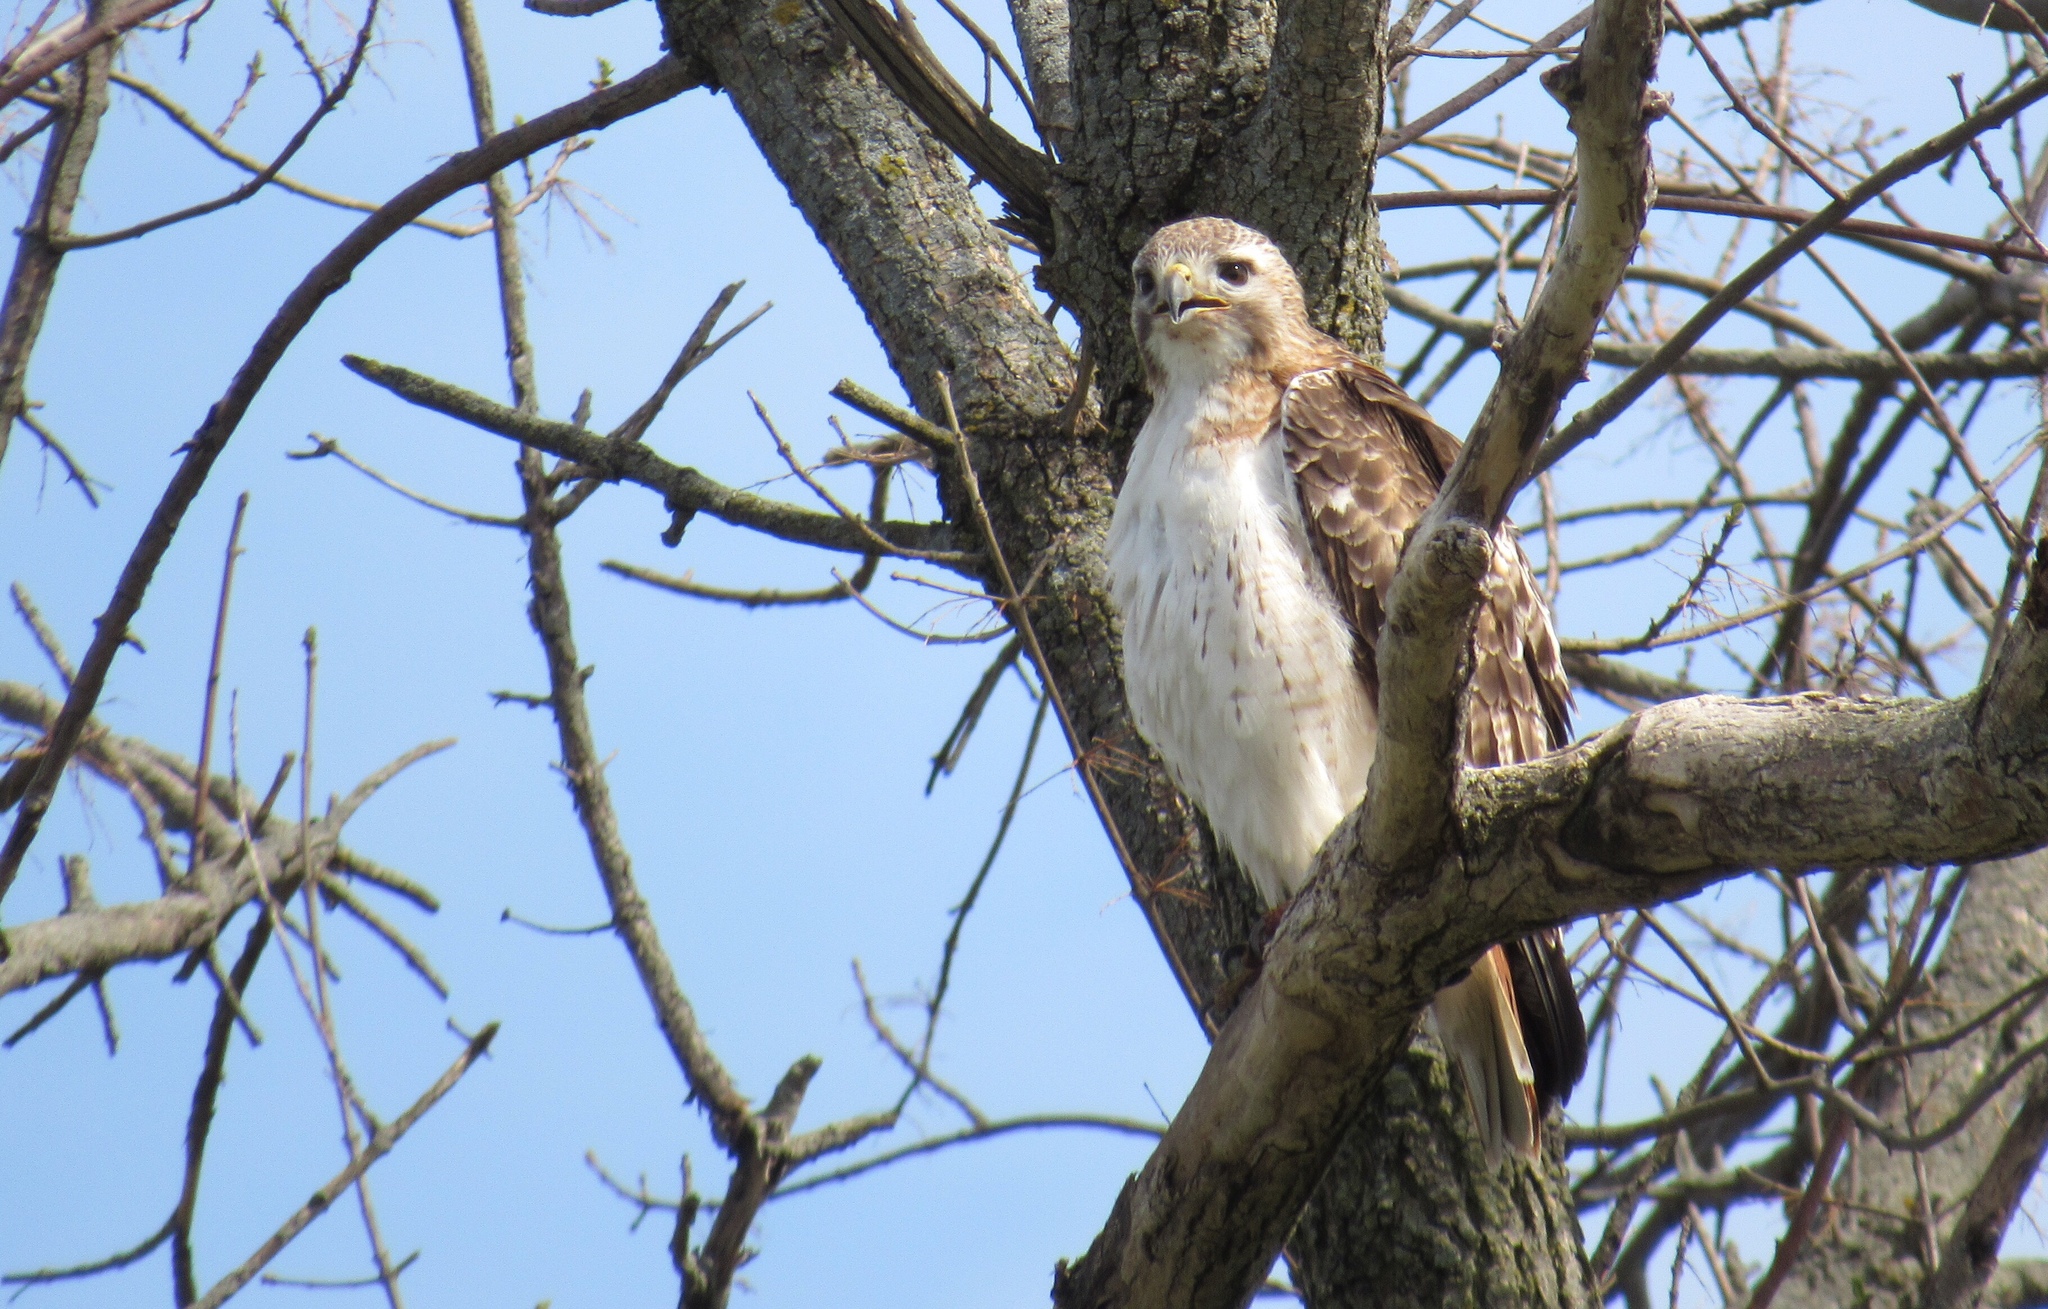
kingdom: Animalia
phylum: Chordata
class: Aves
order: Accipitriformes
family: Accipitridae
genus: Buteo
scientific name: Buteo jamaicensis
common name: Red-tailed hawk
